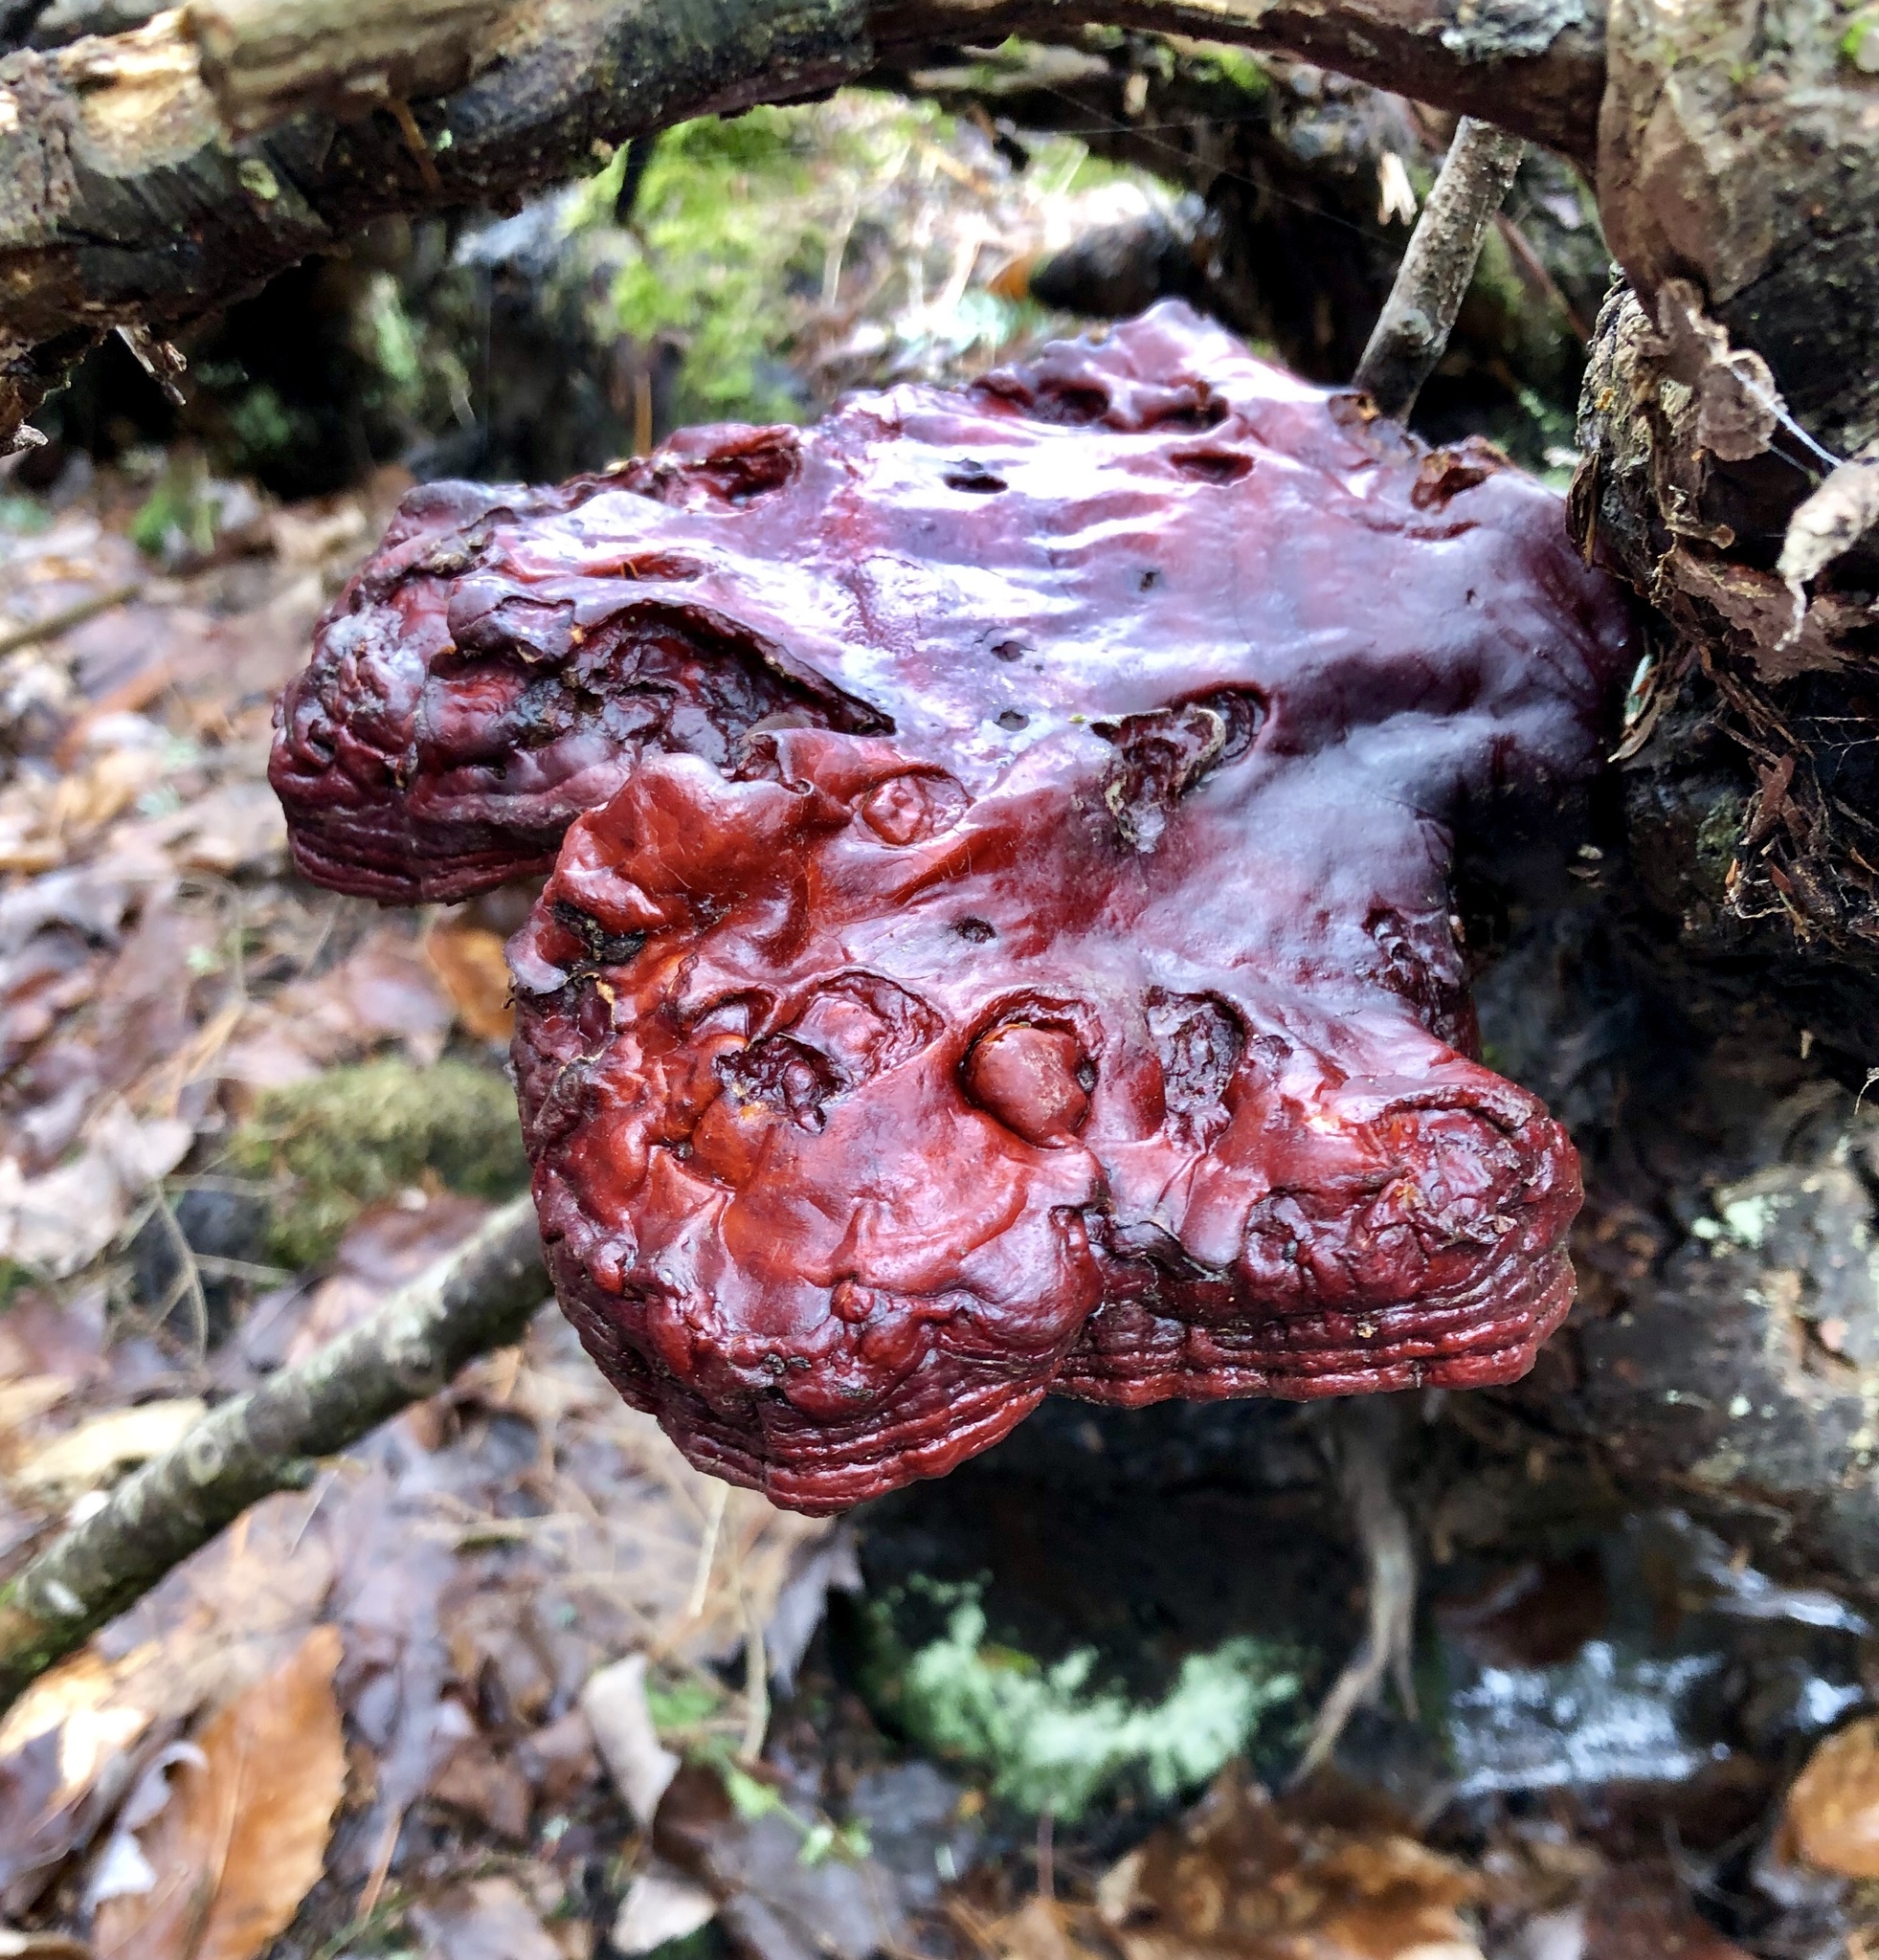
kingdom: Fungi
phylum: Basidiomycota
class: Agaricomycetes
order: Polyporales
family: Polyporaceae
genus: Ganoderma
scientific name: Ganoderma tsugae
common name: Hemlock varnish shelf
